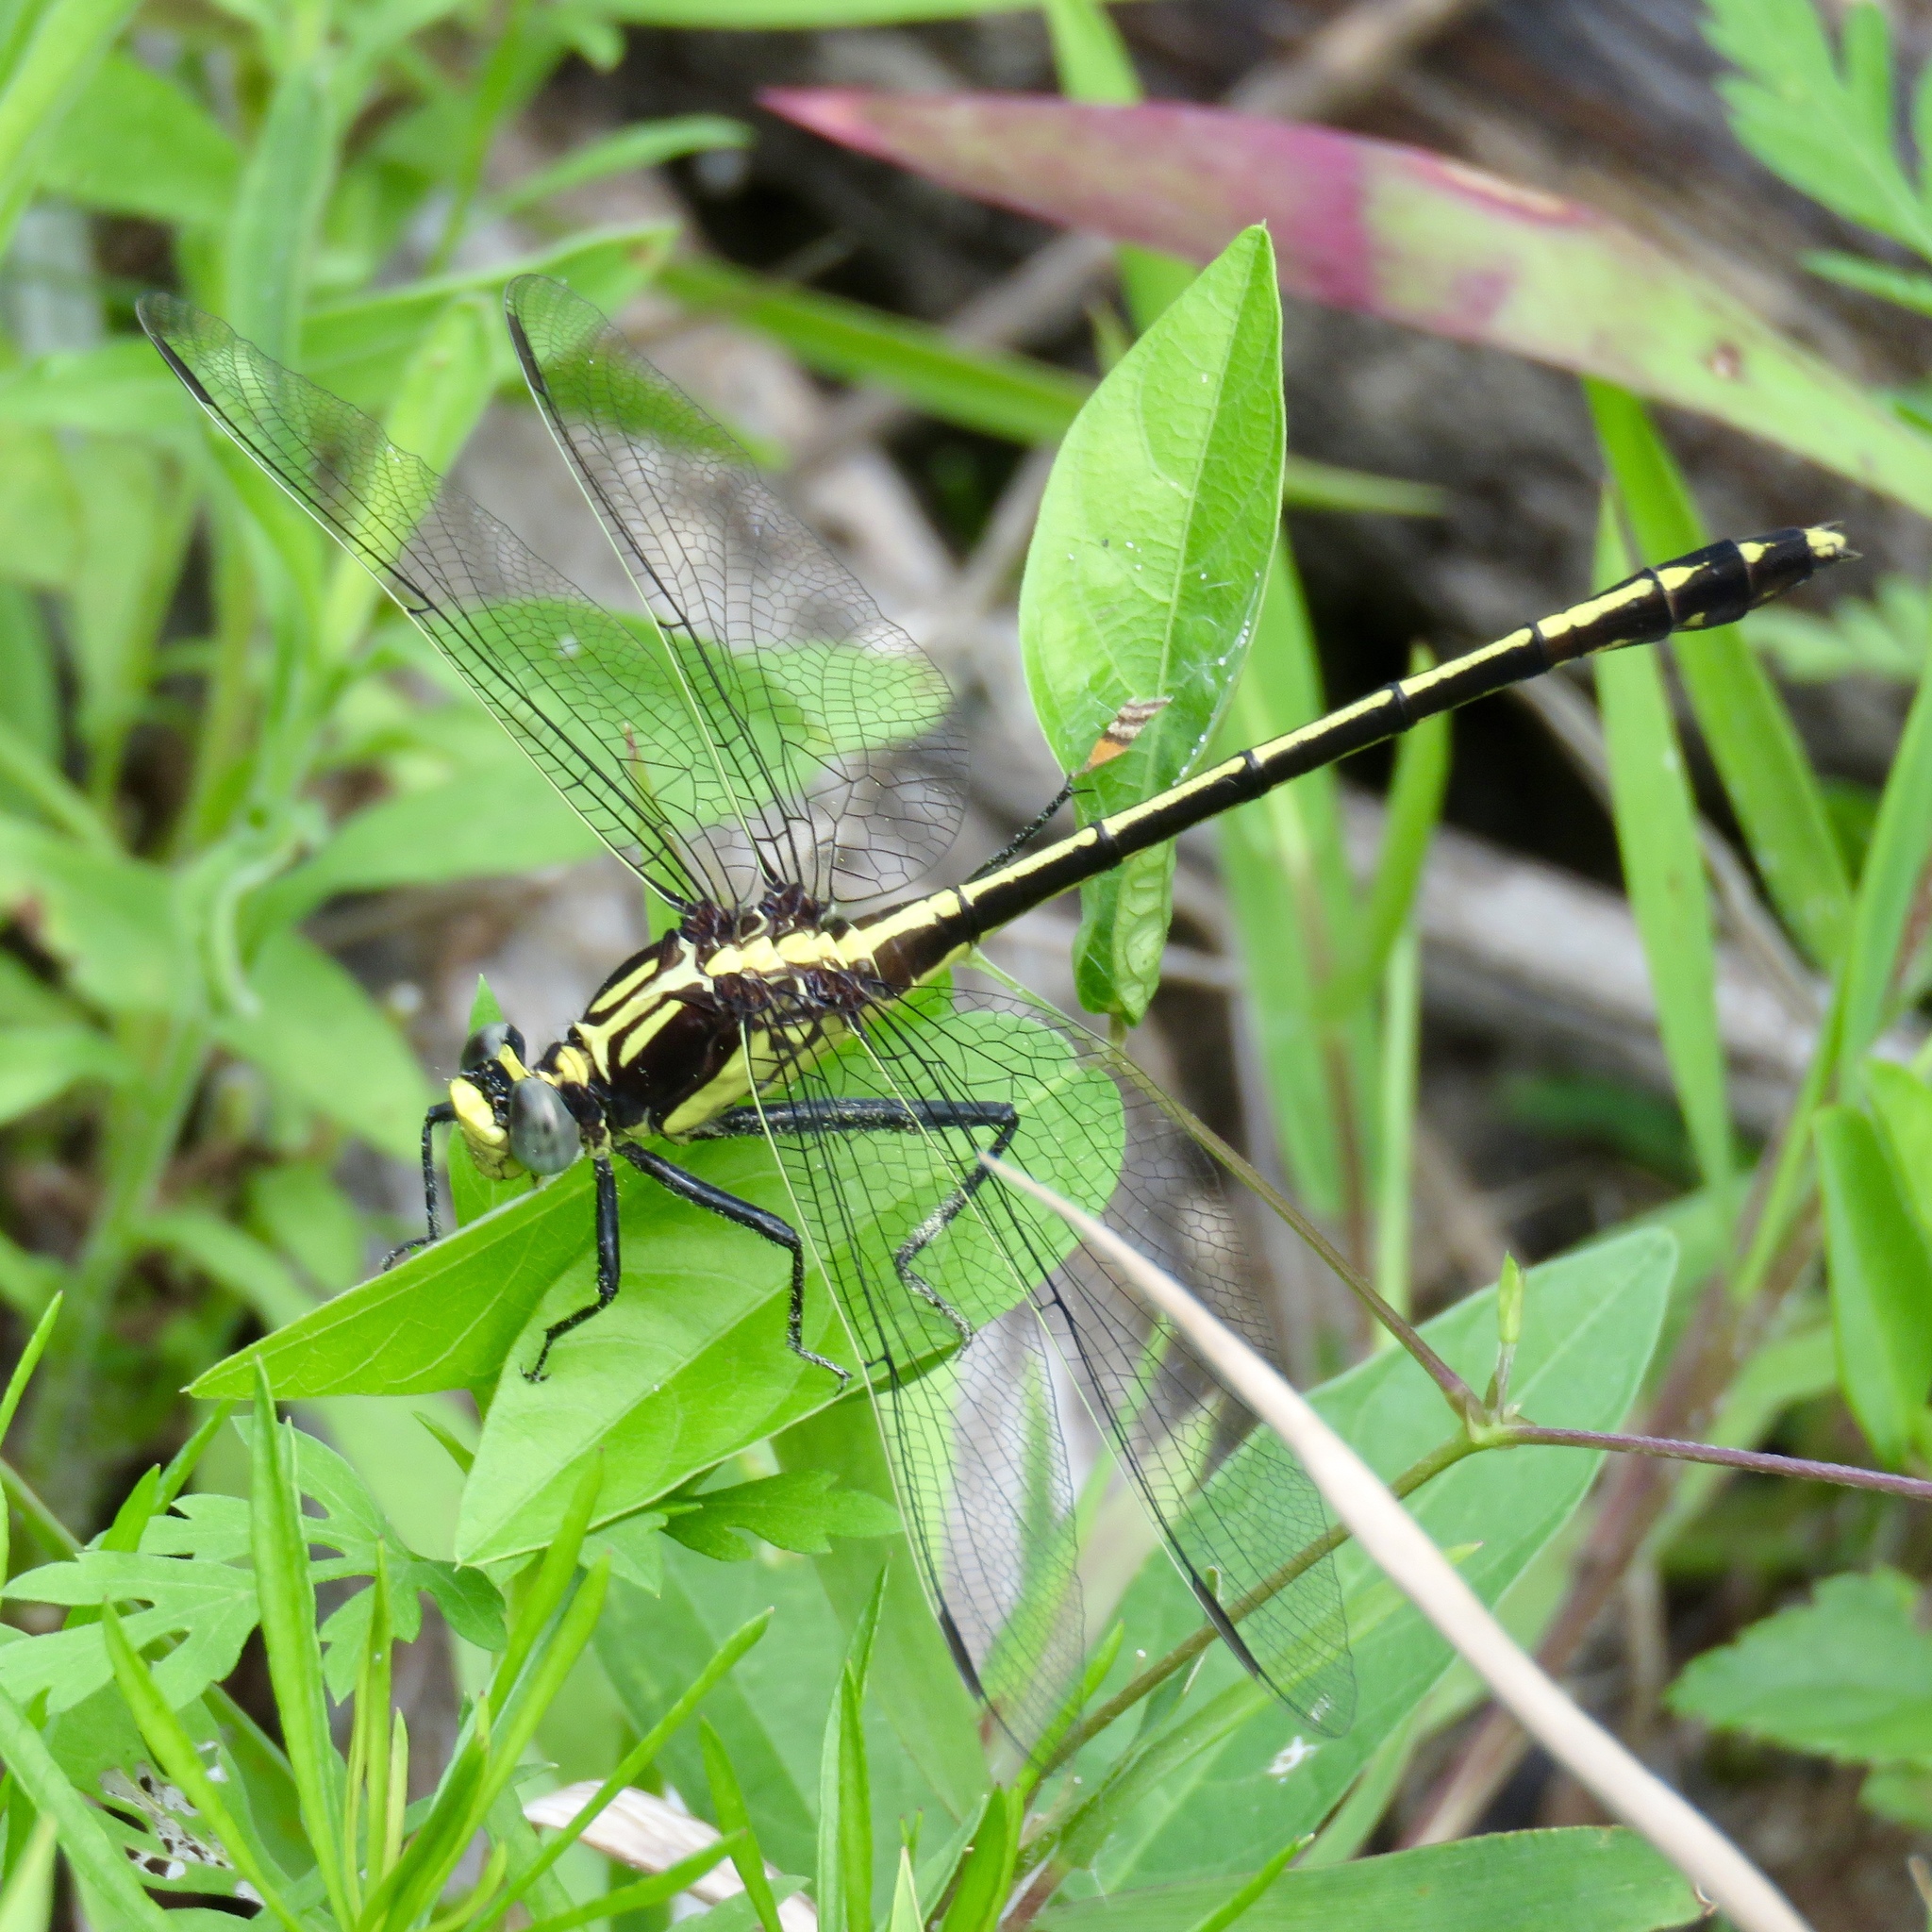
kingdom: Animalia
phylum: Arthropoda
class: Insecta
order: Odonata
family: Gomphidae
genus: Dromogomphus
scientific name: Dromogomphus spinosus
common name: Black-shouldered spinyleg
